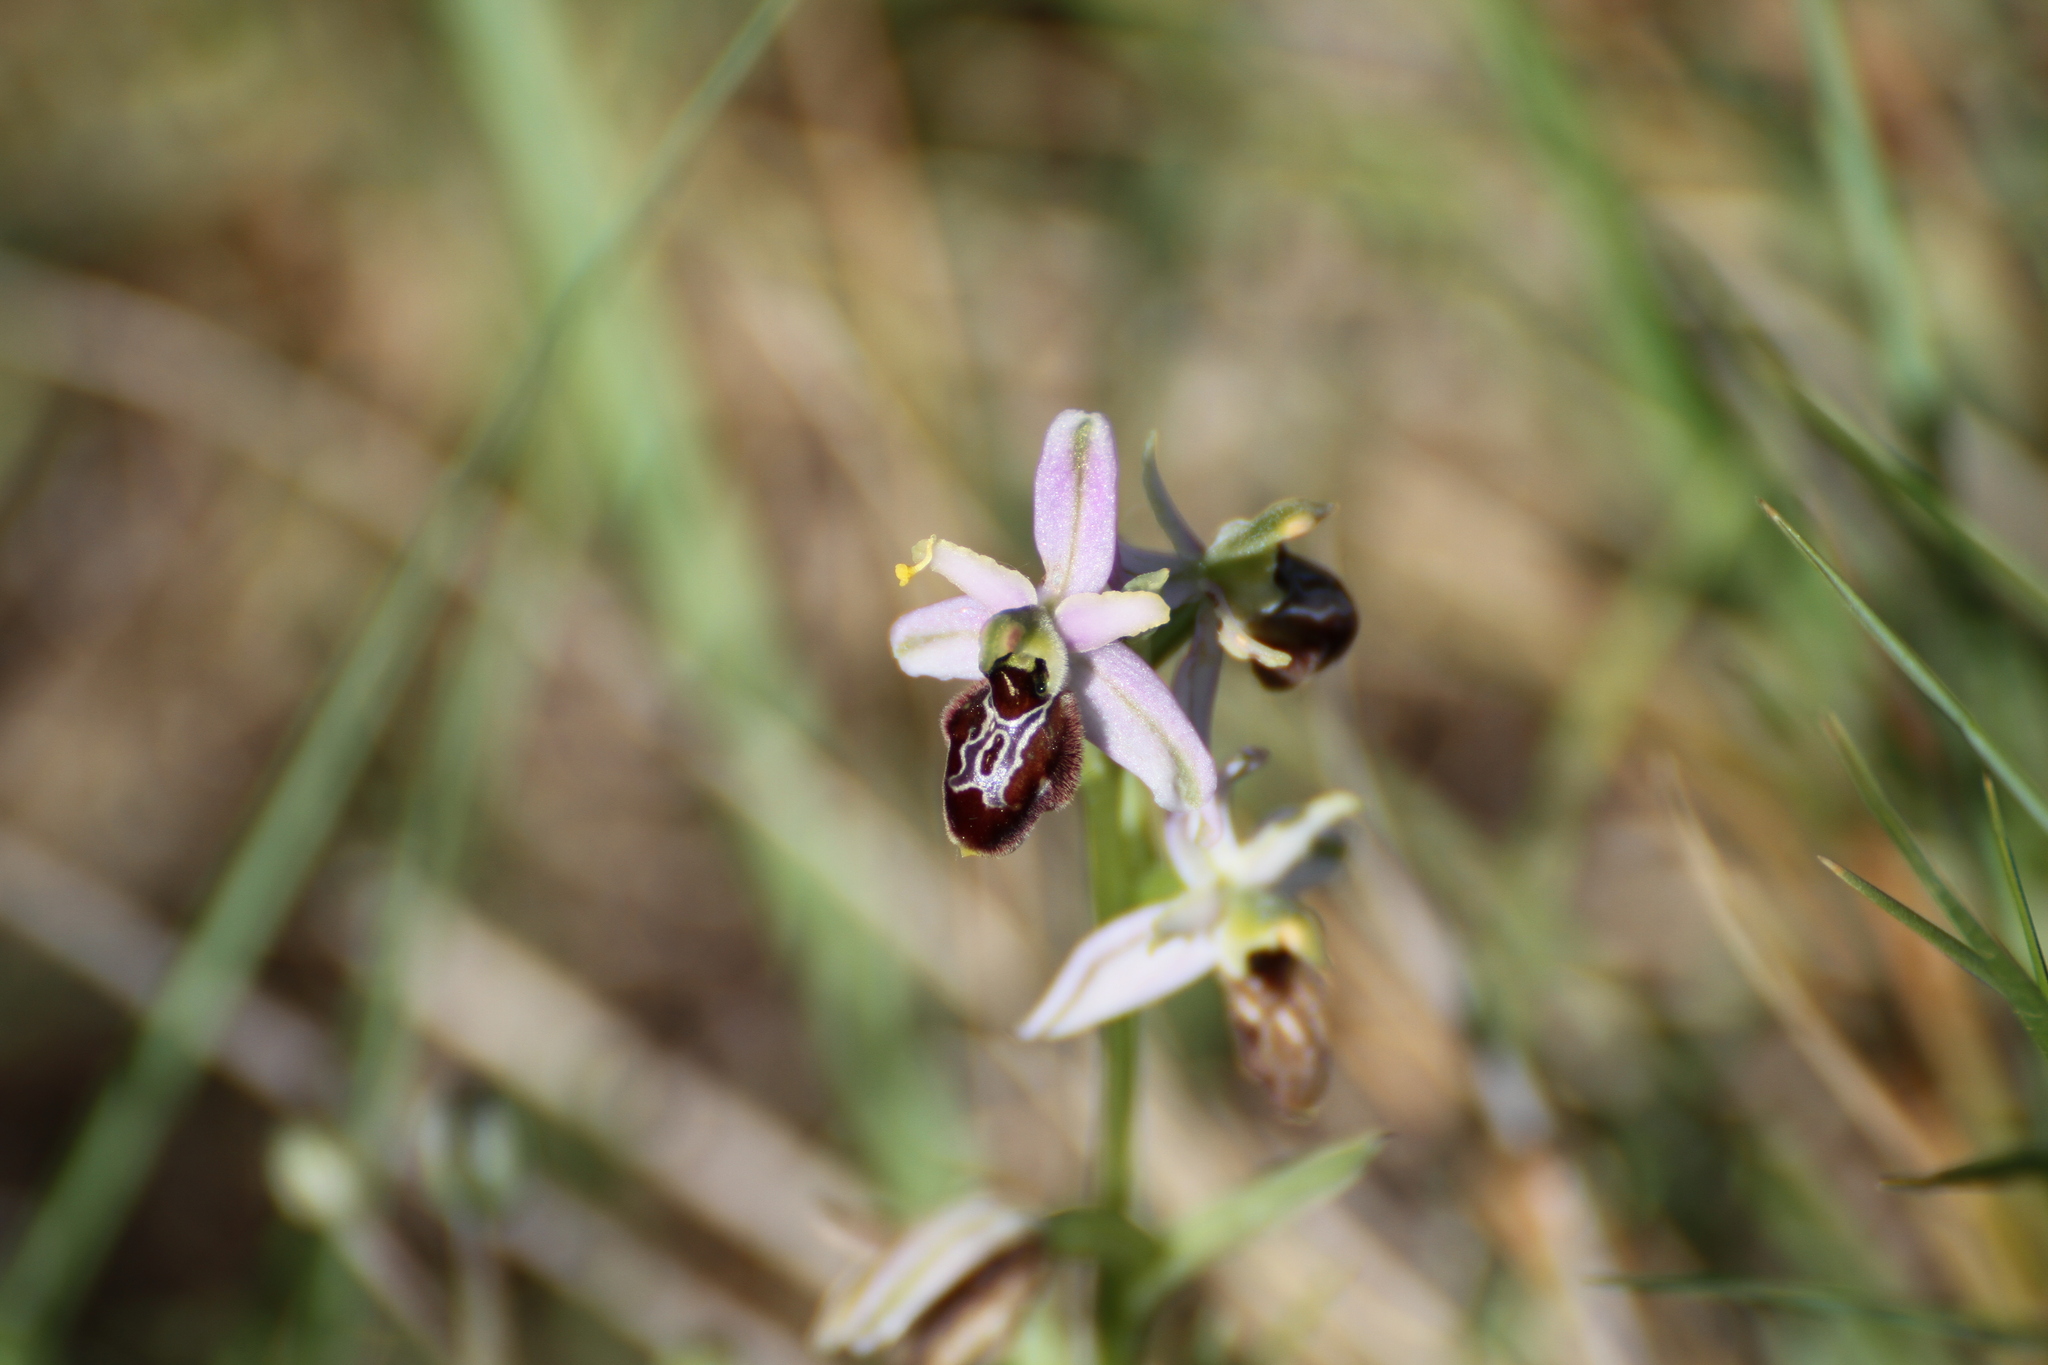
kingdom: Plantae
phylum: Tracheophyta
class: Liliopsida
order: Asparagales
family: Orchidaceae
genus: Ophrys
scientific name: Ophrys arachnitiformis
